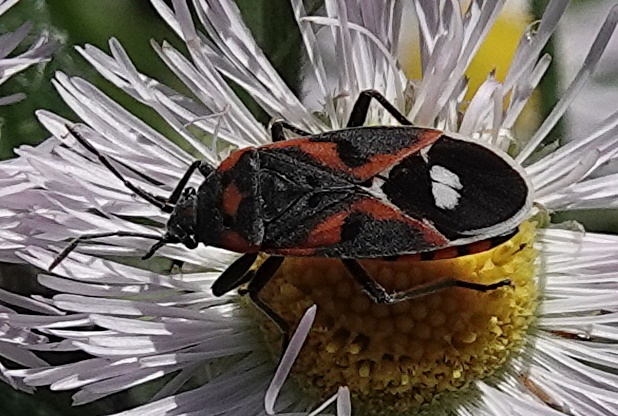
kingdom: Animalia
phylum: Arthropoda
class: Insecta
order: Hemiptera
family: Lygaeidae
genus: Lygaeus
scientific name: Lygaeus kalmii
